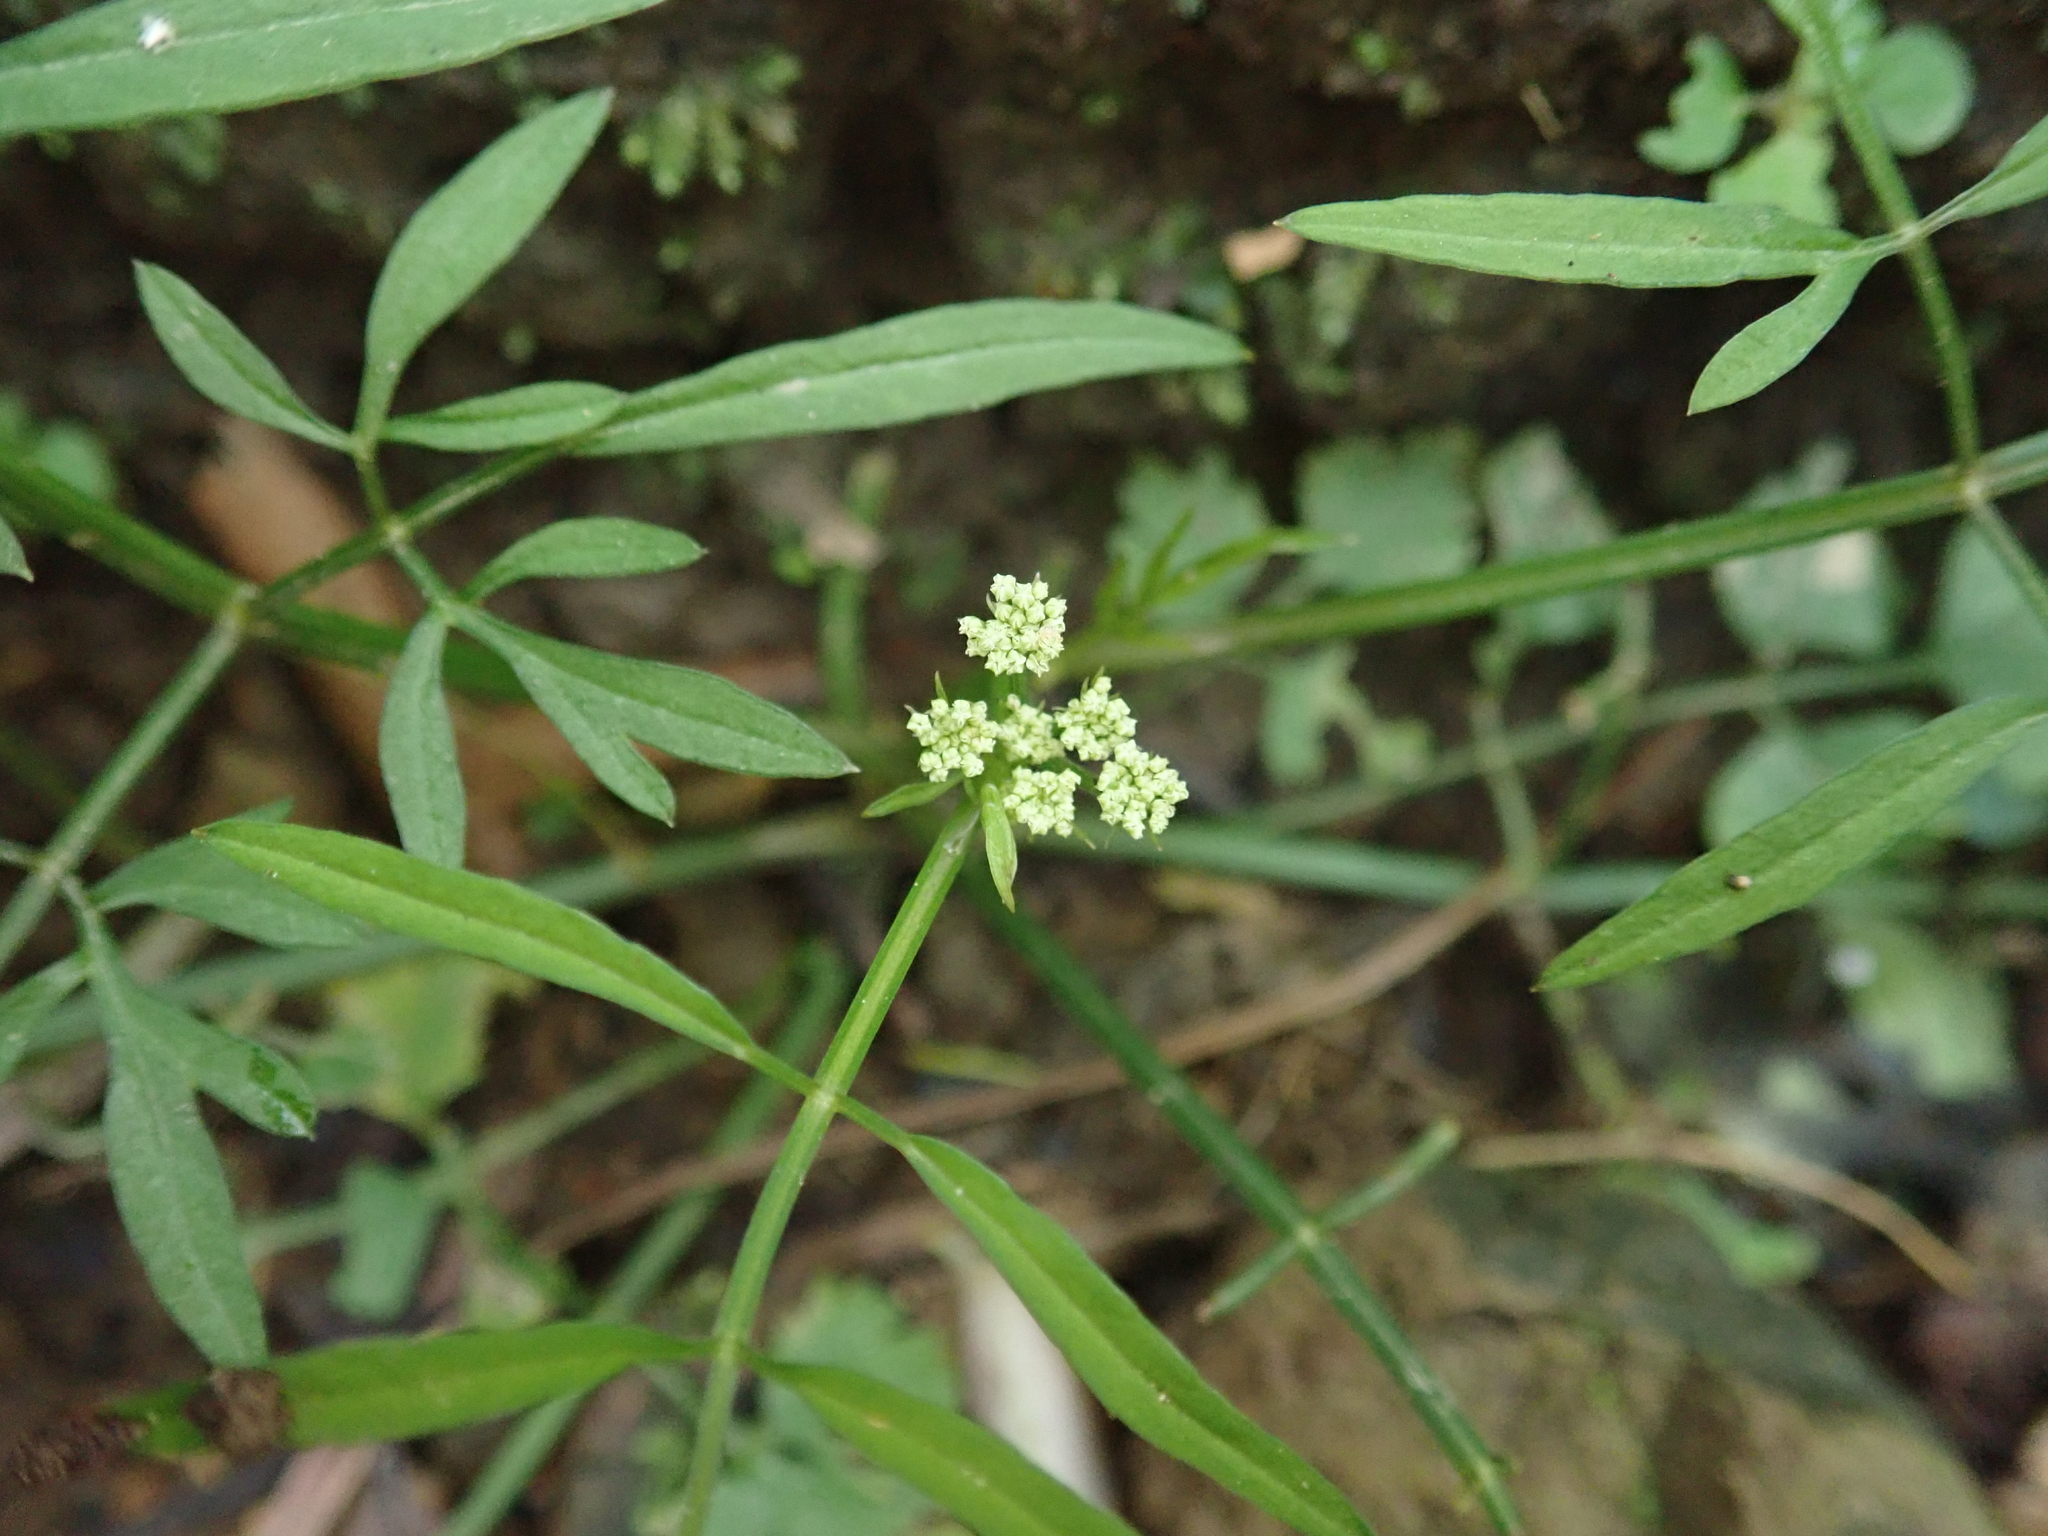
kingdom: Plantae
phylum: Tracheophyta
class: Magnoliopsida
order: Apiales
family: Apiaceae
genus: Oenanthe
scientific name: Oenanthe javanica
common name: Java water-dropwort
